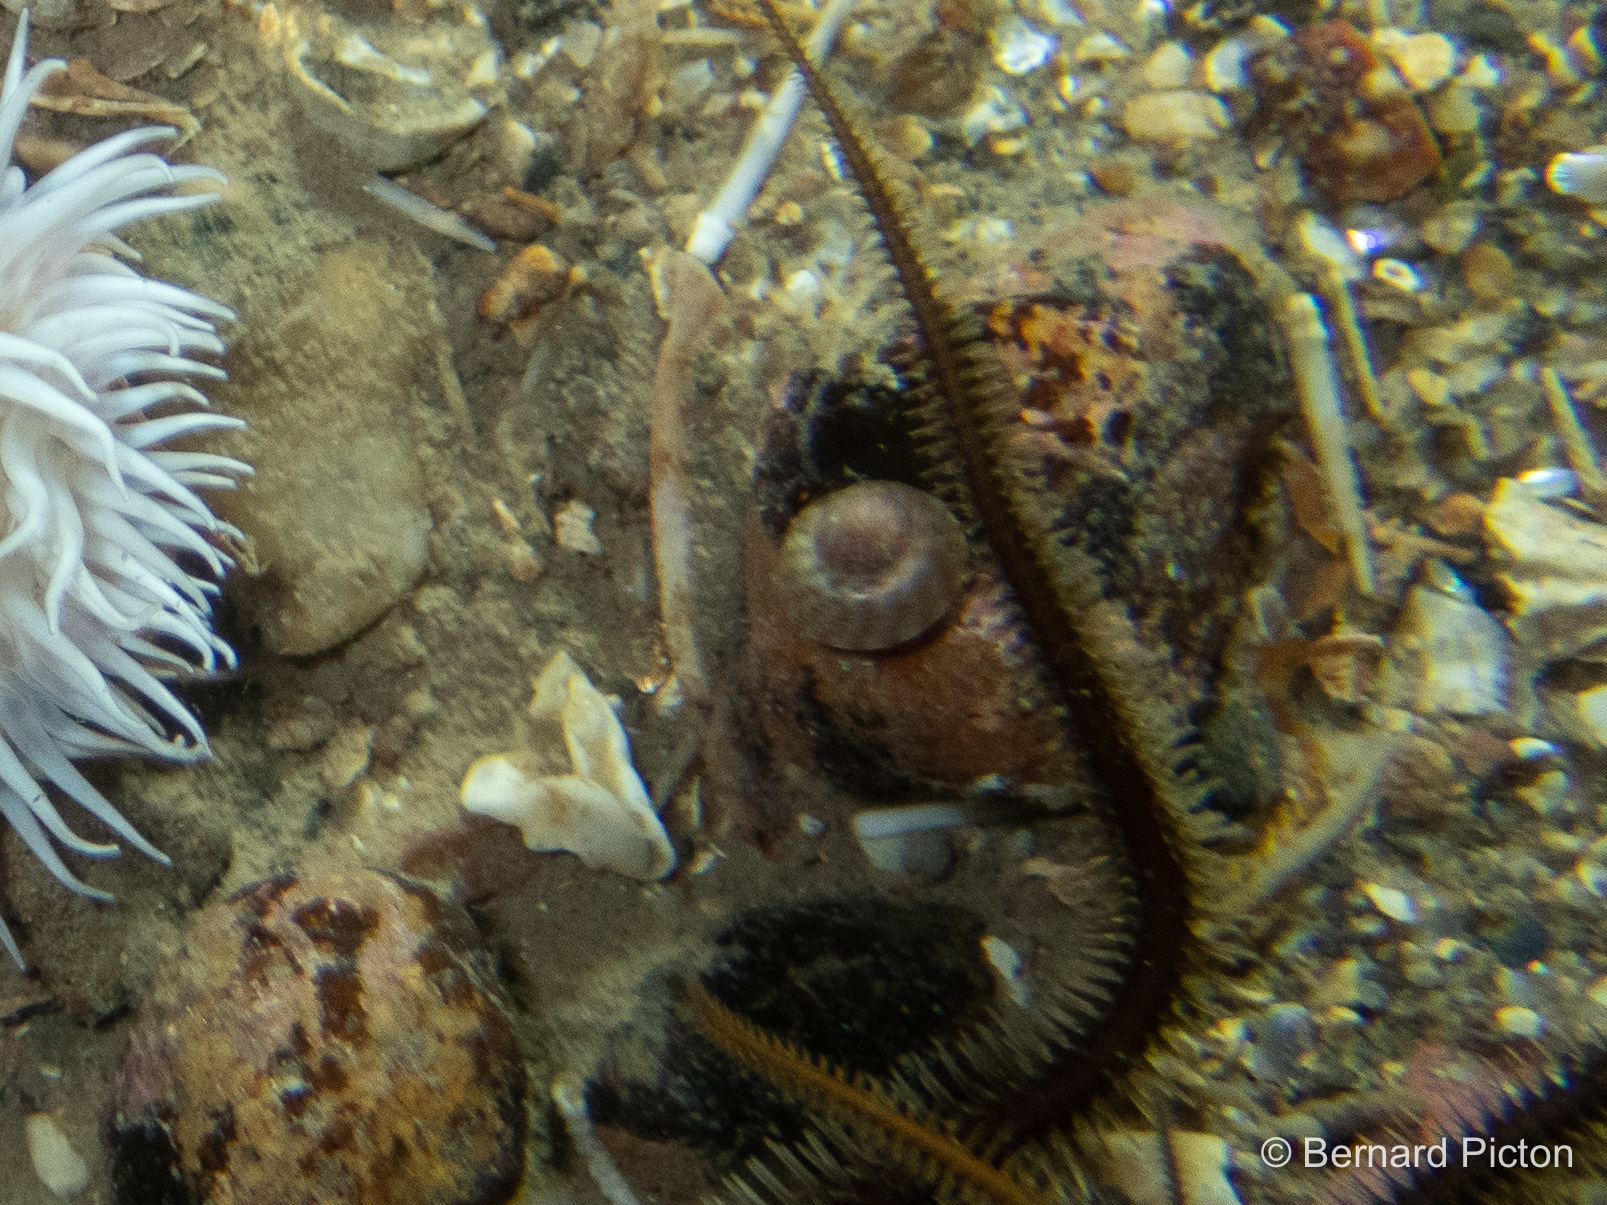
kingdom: Animalia
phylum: Mollusca
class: Gastropoda
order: Trochida
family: Trochidae
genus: Steromphala
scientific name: Steromphala tumida
